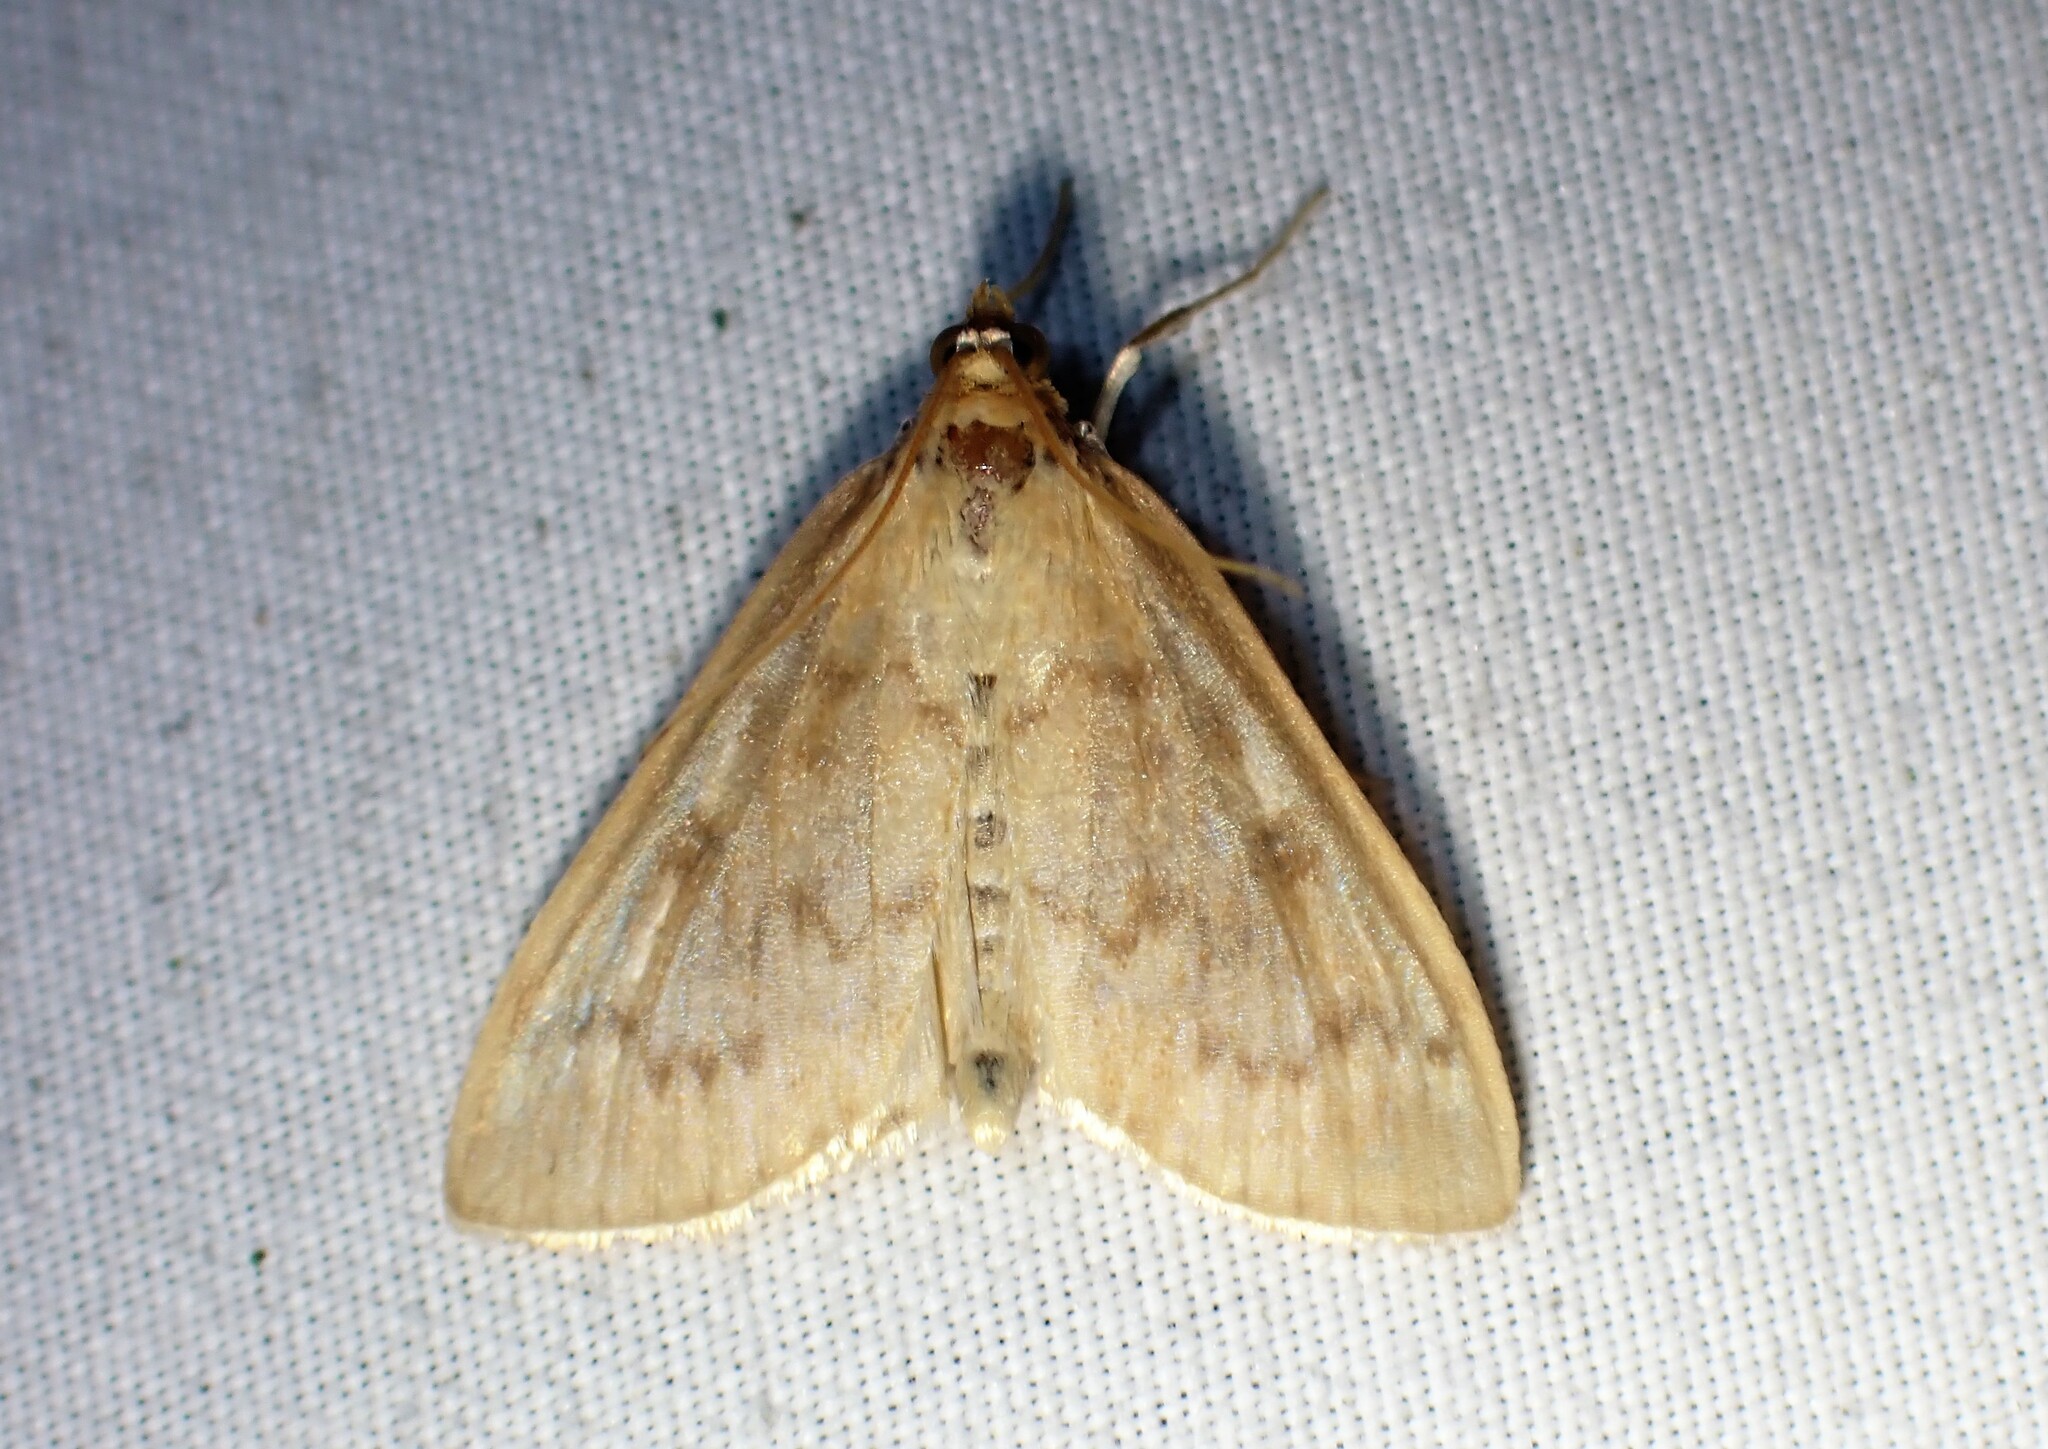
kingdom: Animalia
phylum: Arthropoda
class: Insecta
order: Lepidoptera
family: Crambidae
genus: Anania
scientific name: Anania Framinghamia helvalis
